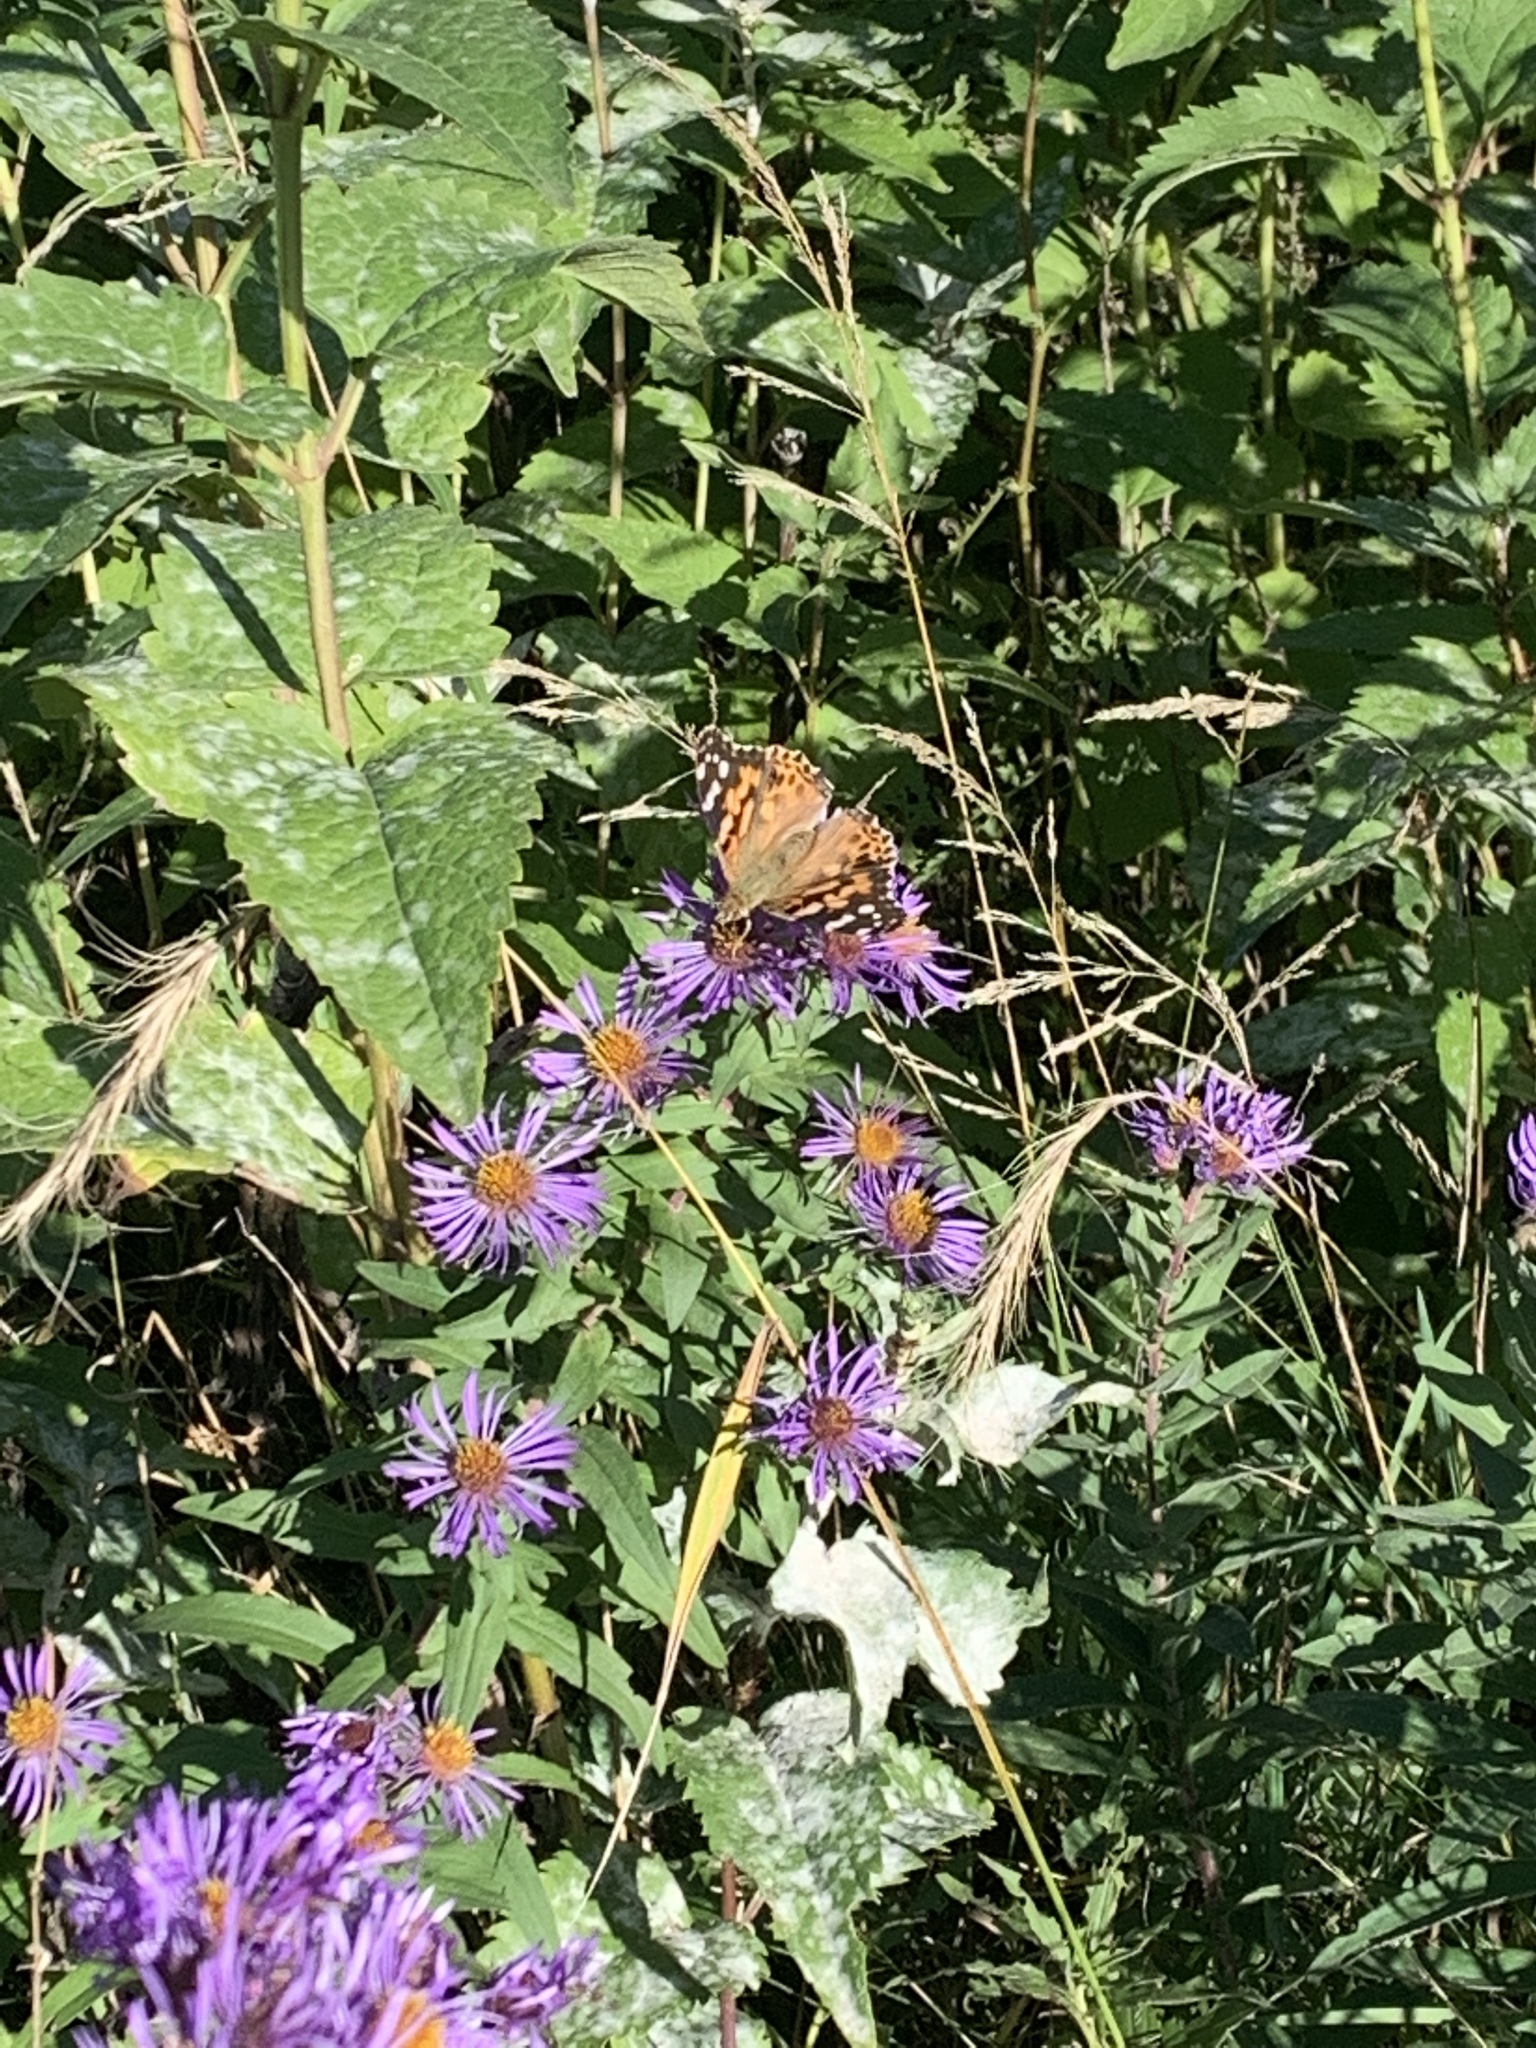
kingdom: Animalia
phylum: Arthropoda
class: Insecta
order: Lepidoptera
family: Nymphalidae
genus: Vanessa
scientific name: Vanessa cardui
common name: Painted lady
